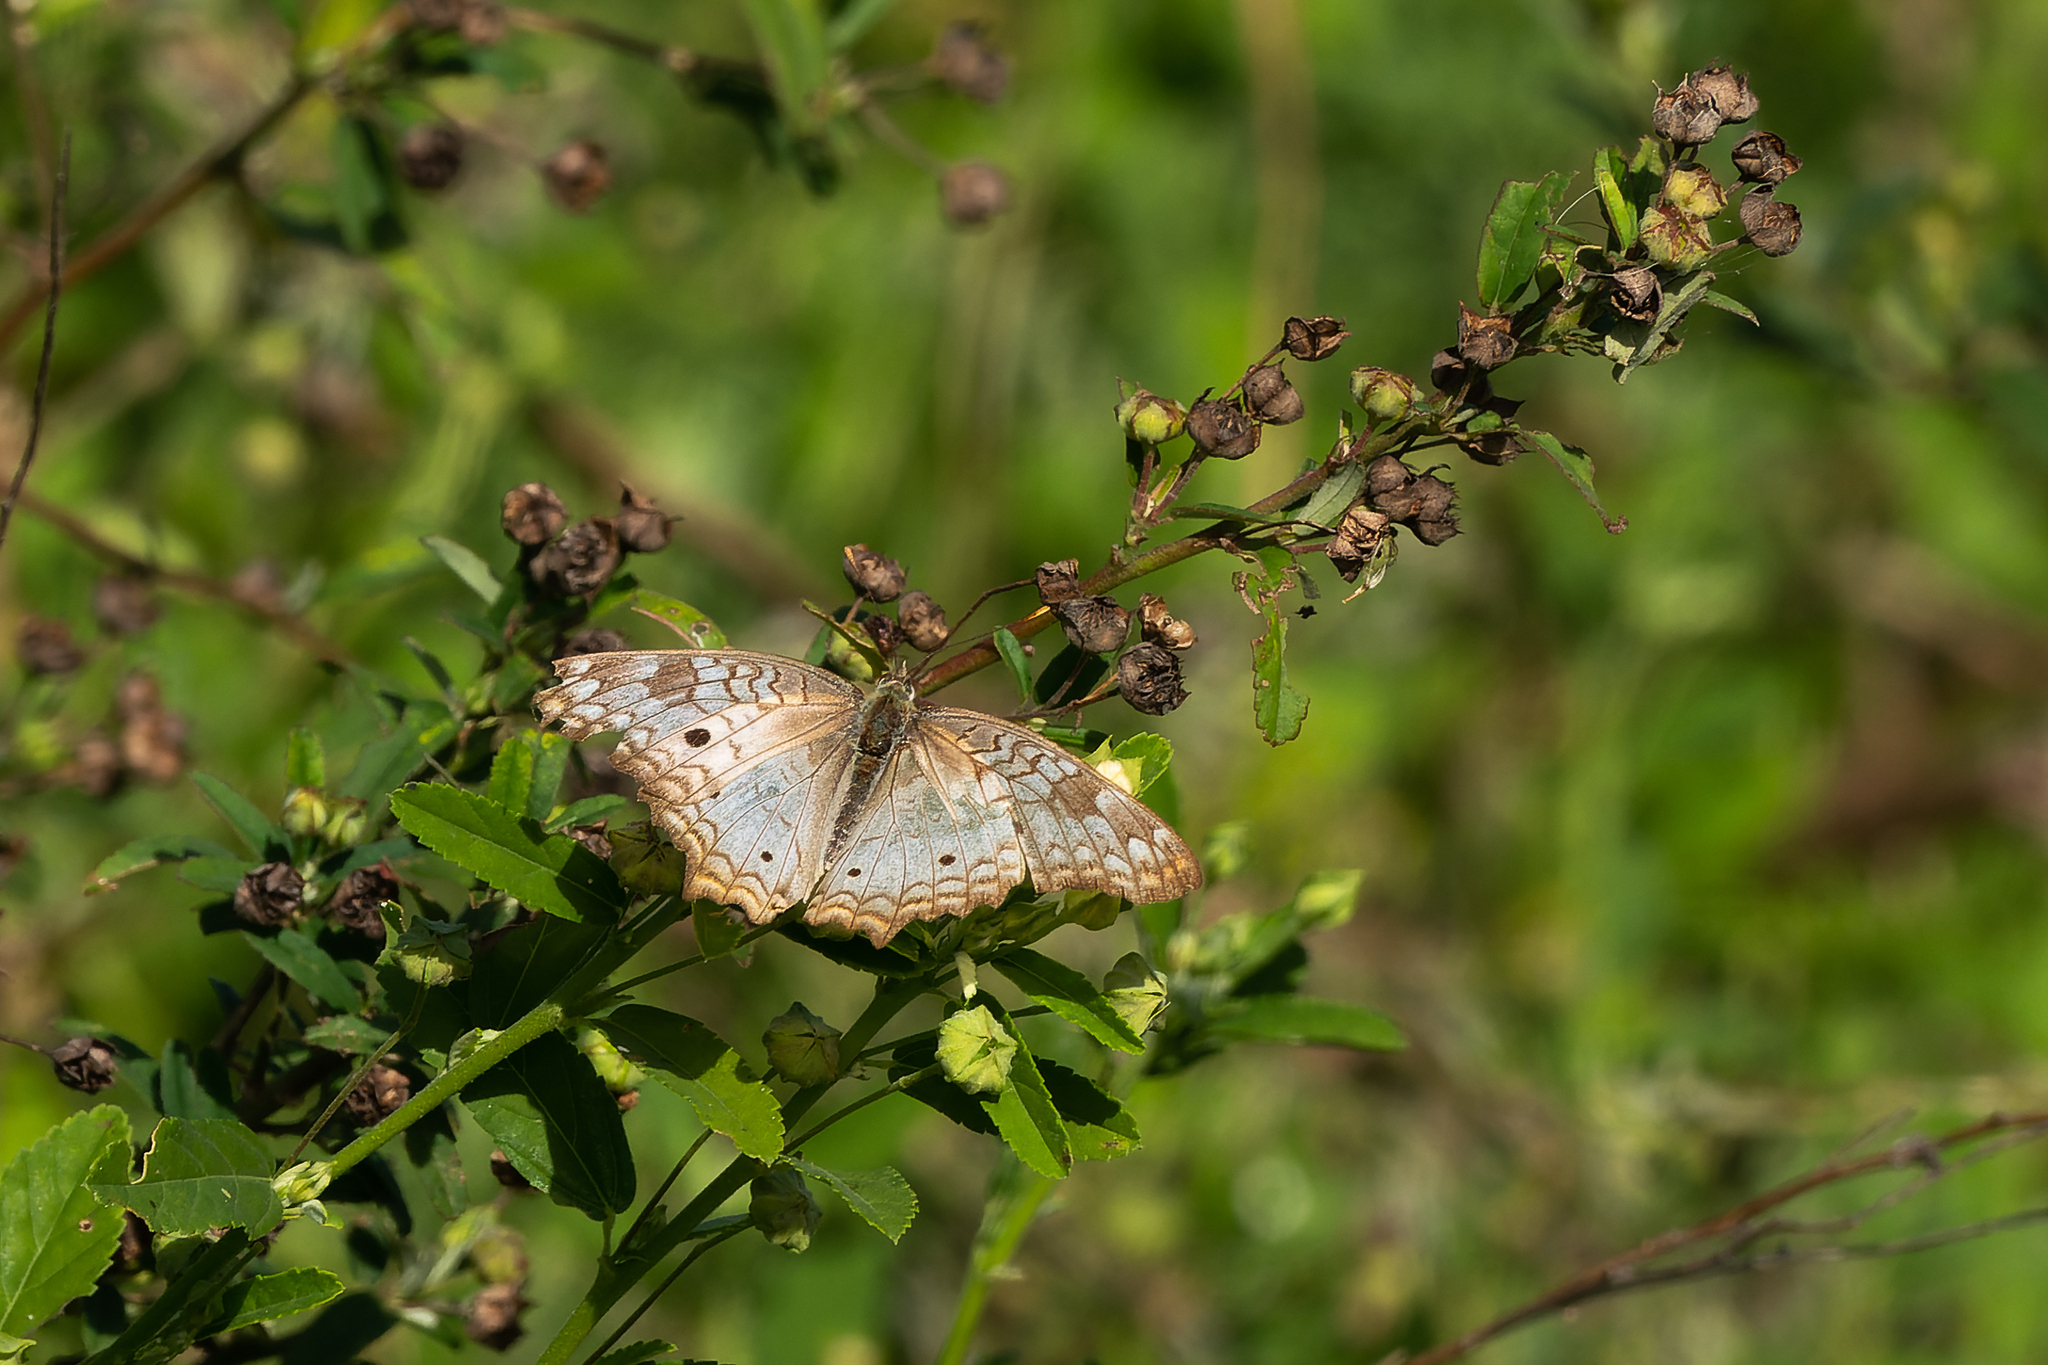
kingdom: Animalia
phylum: Arthropoda
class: Insecta
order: Lepidoptera
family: Nymphalidae
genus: Anartia
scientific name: Anartia jatrophae
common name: White peacock
